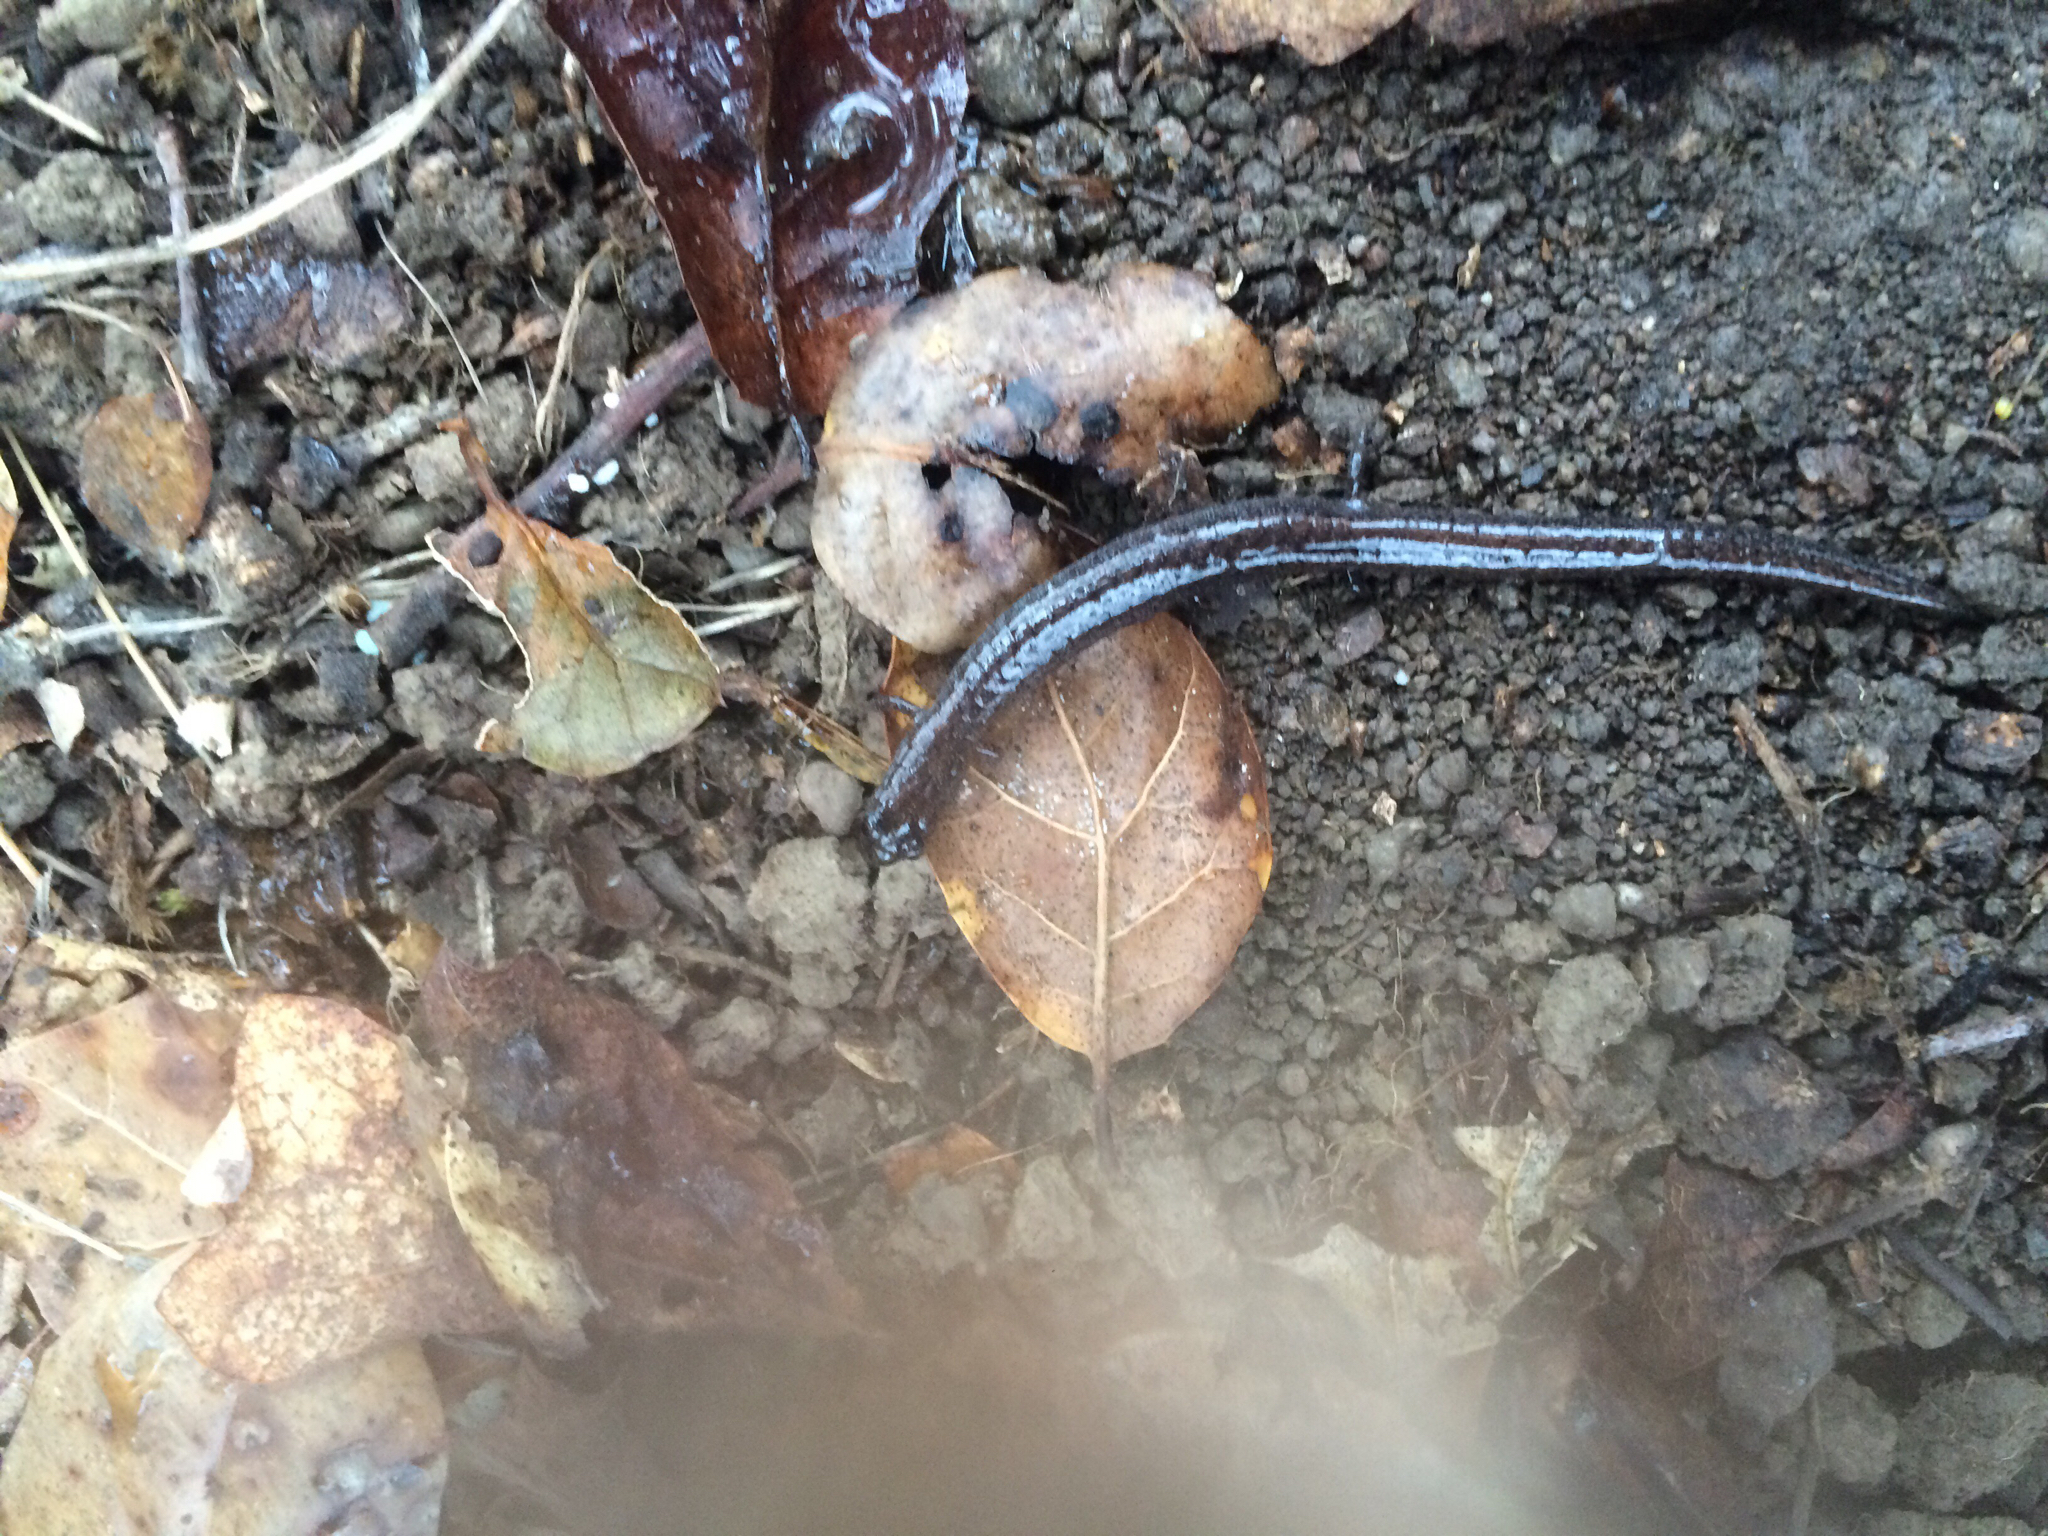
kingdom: Animalia
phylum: Chordata
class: Amphibia
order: Caudata
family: Plethodontidae
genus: Batrachoseps
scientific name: Batrachoseps attenuatus
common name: California slender salamander
